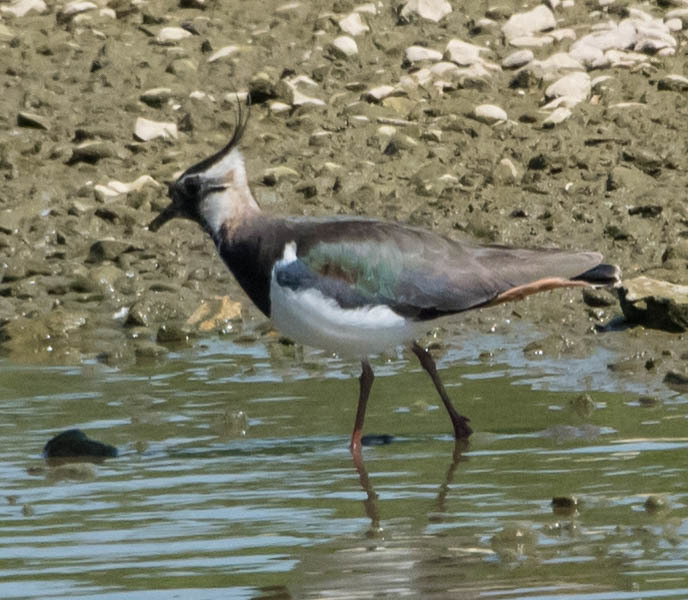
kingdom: Animalia
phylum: Chordata
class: Aves
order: Charadriiformes
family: Charadriidae
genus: Vanellus
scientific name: Vanellus vanellus
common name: Northern lapwing
